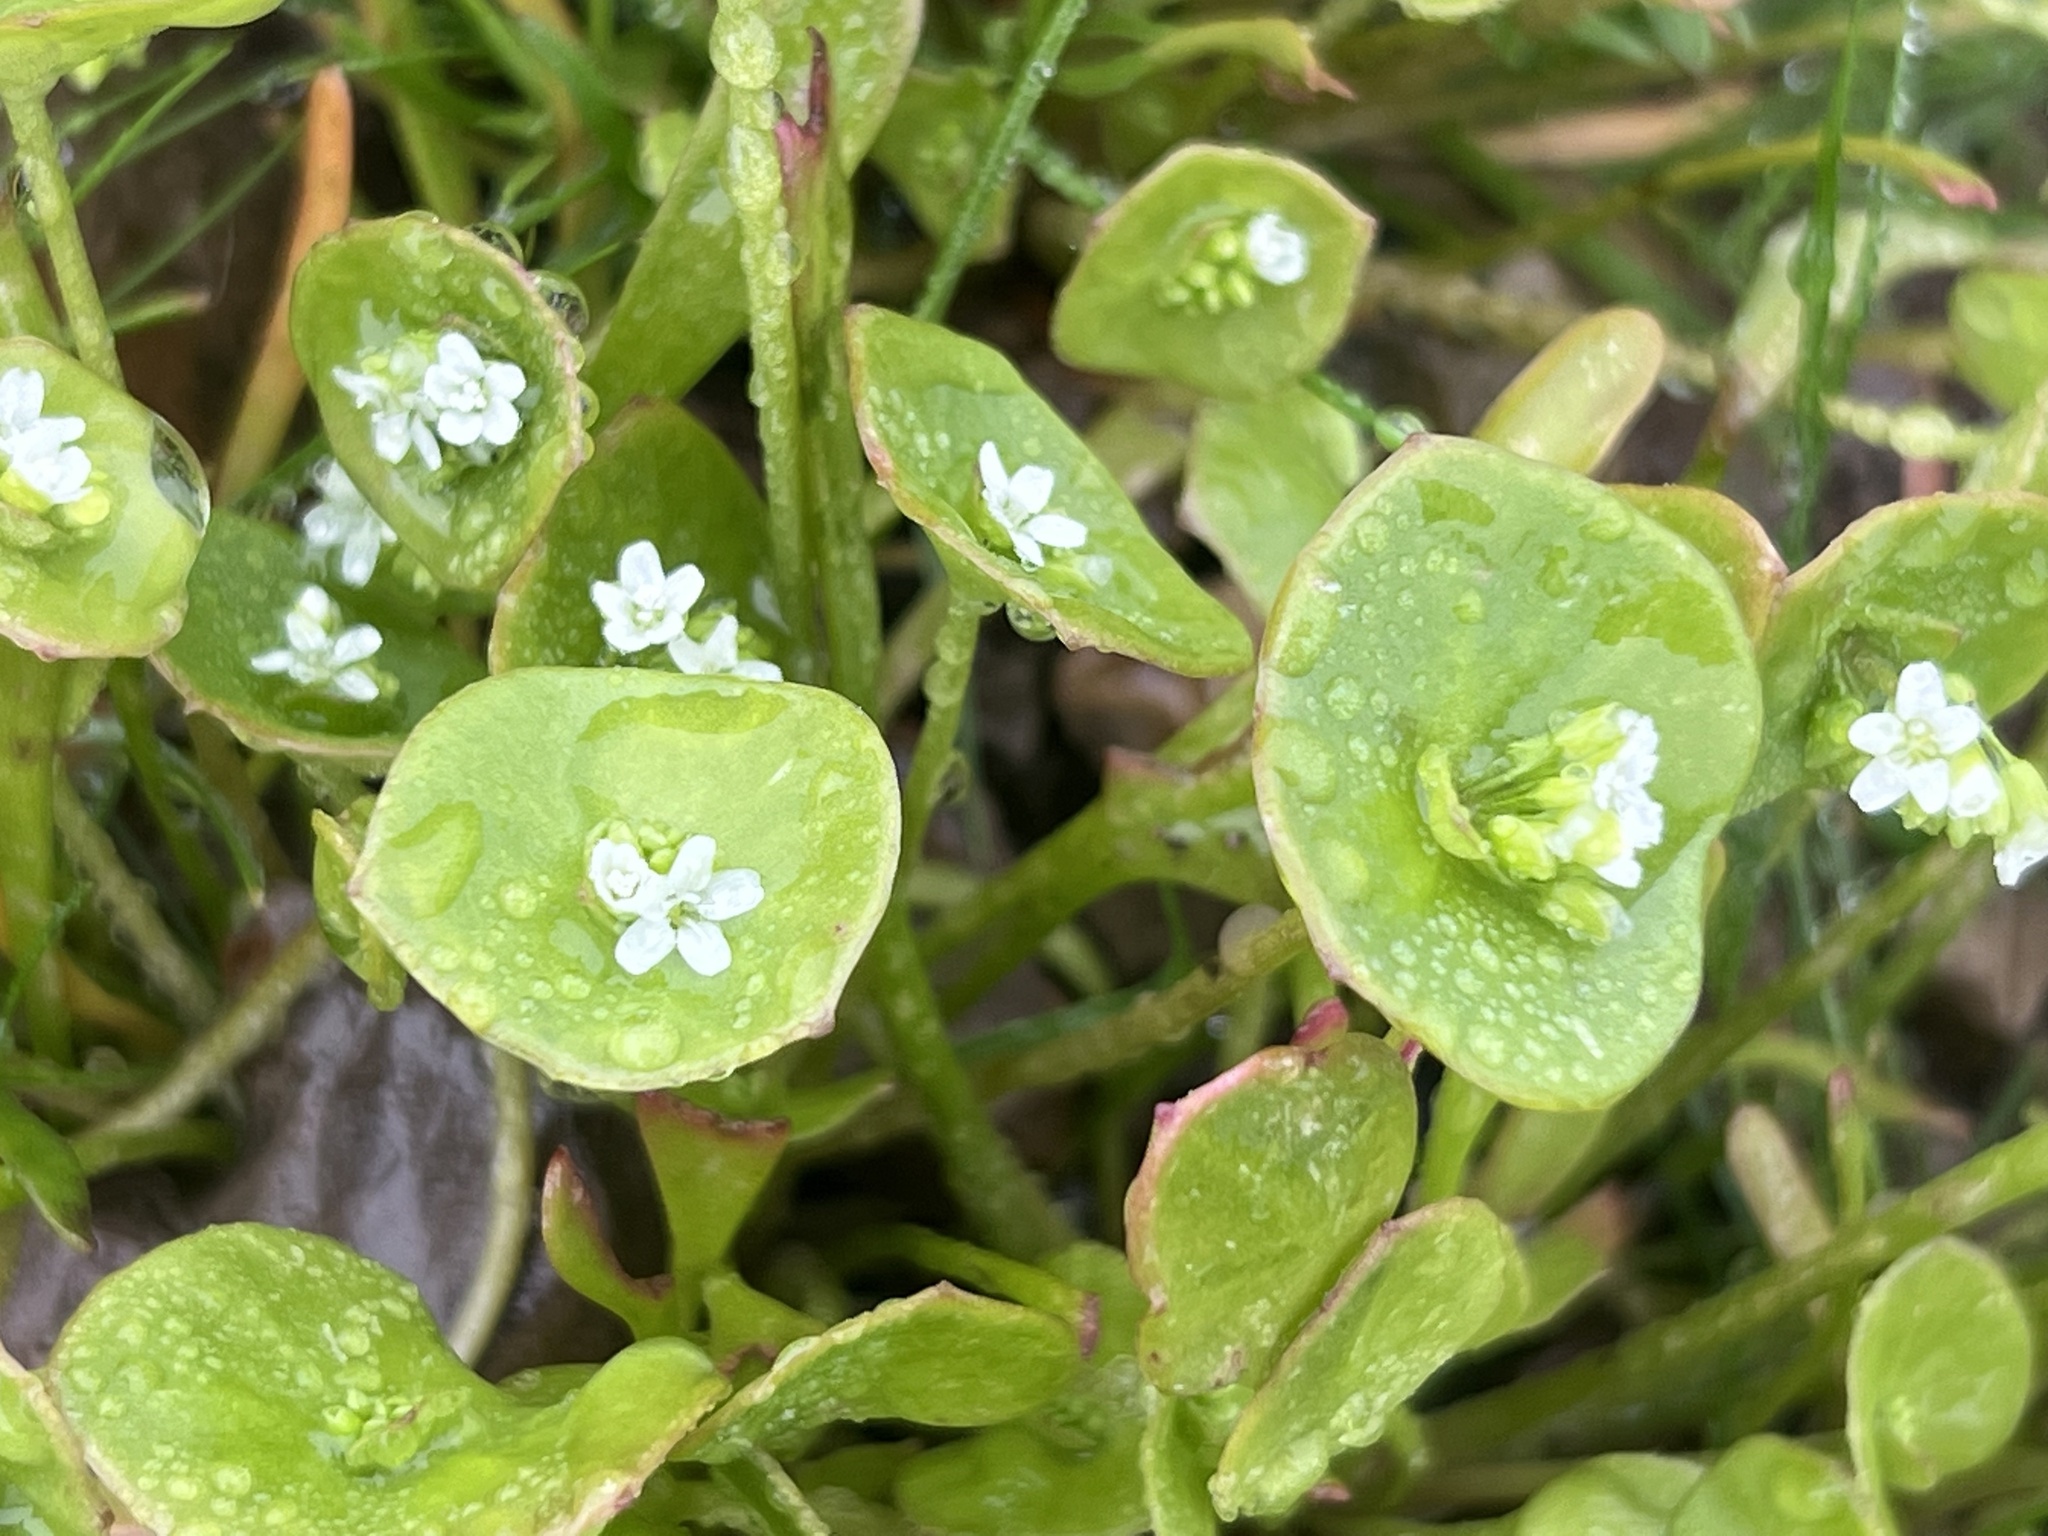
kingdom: Plantae
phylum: Tracheophyta
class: Magnoliopsida
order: Caryophyllales
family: Montiaceae
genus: Claytonia
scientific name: Claytonia perfoliata
